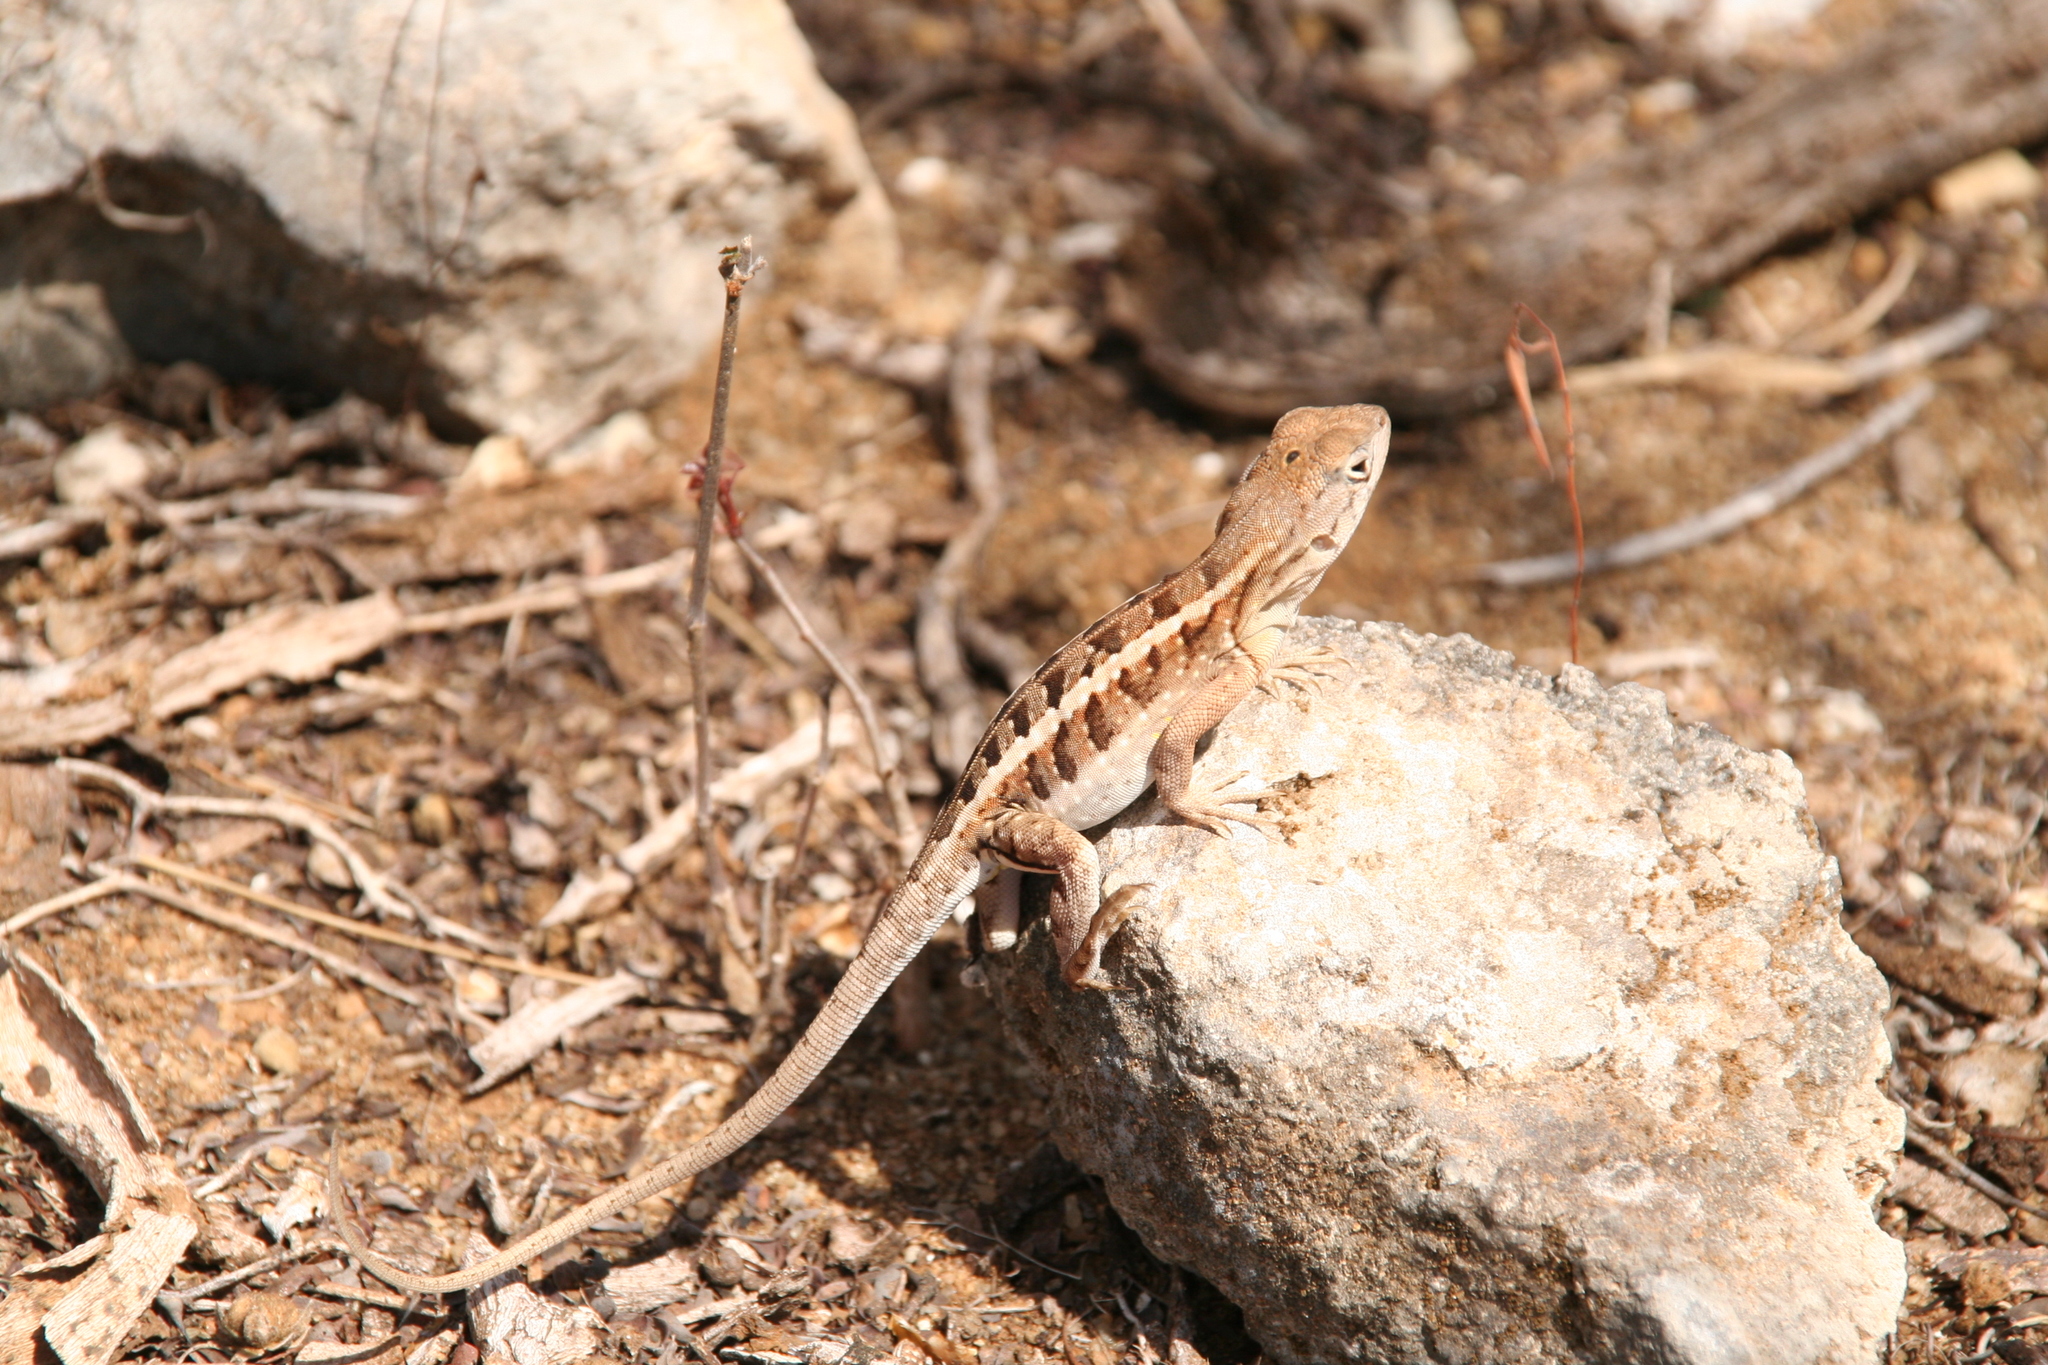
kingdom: Animalia
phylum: Chordata
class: Squamata
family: Opluridae
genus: Chalarodon
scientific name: Chalarodon madagascariensis
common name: Madagascar iguana
